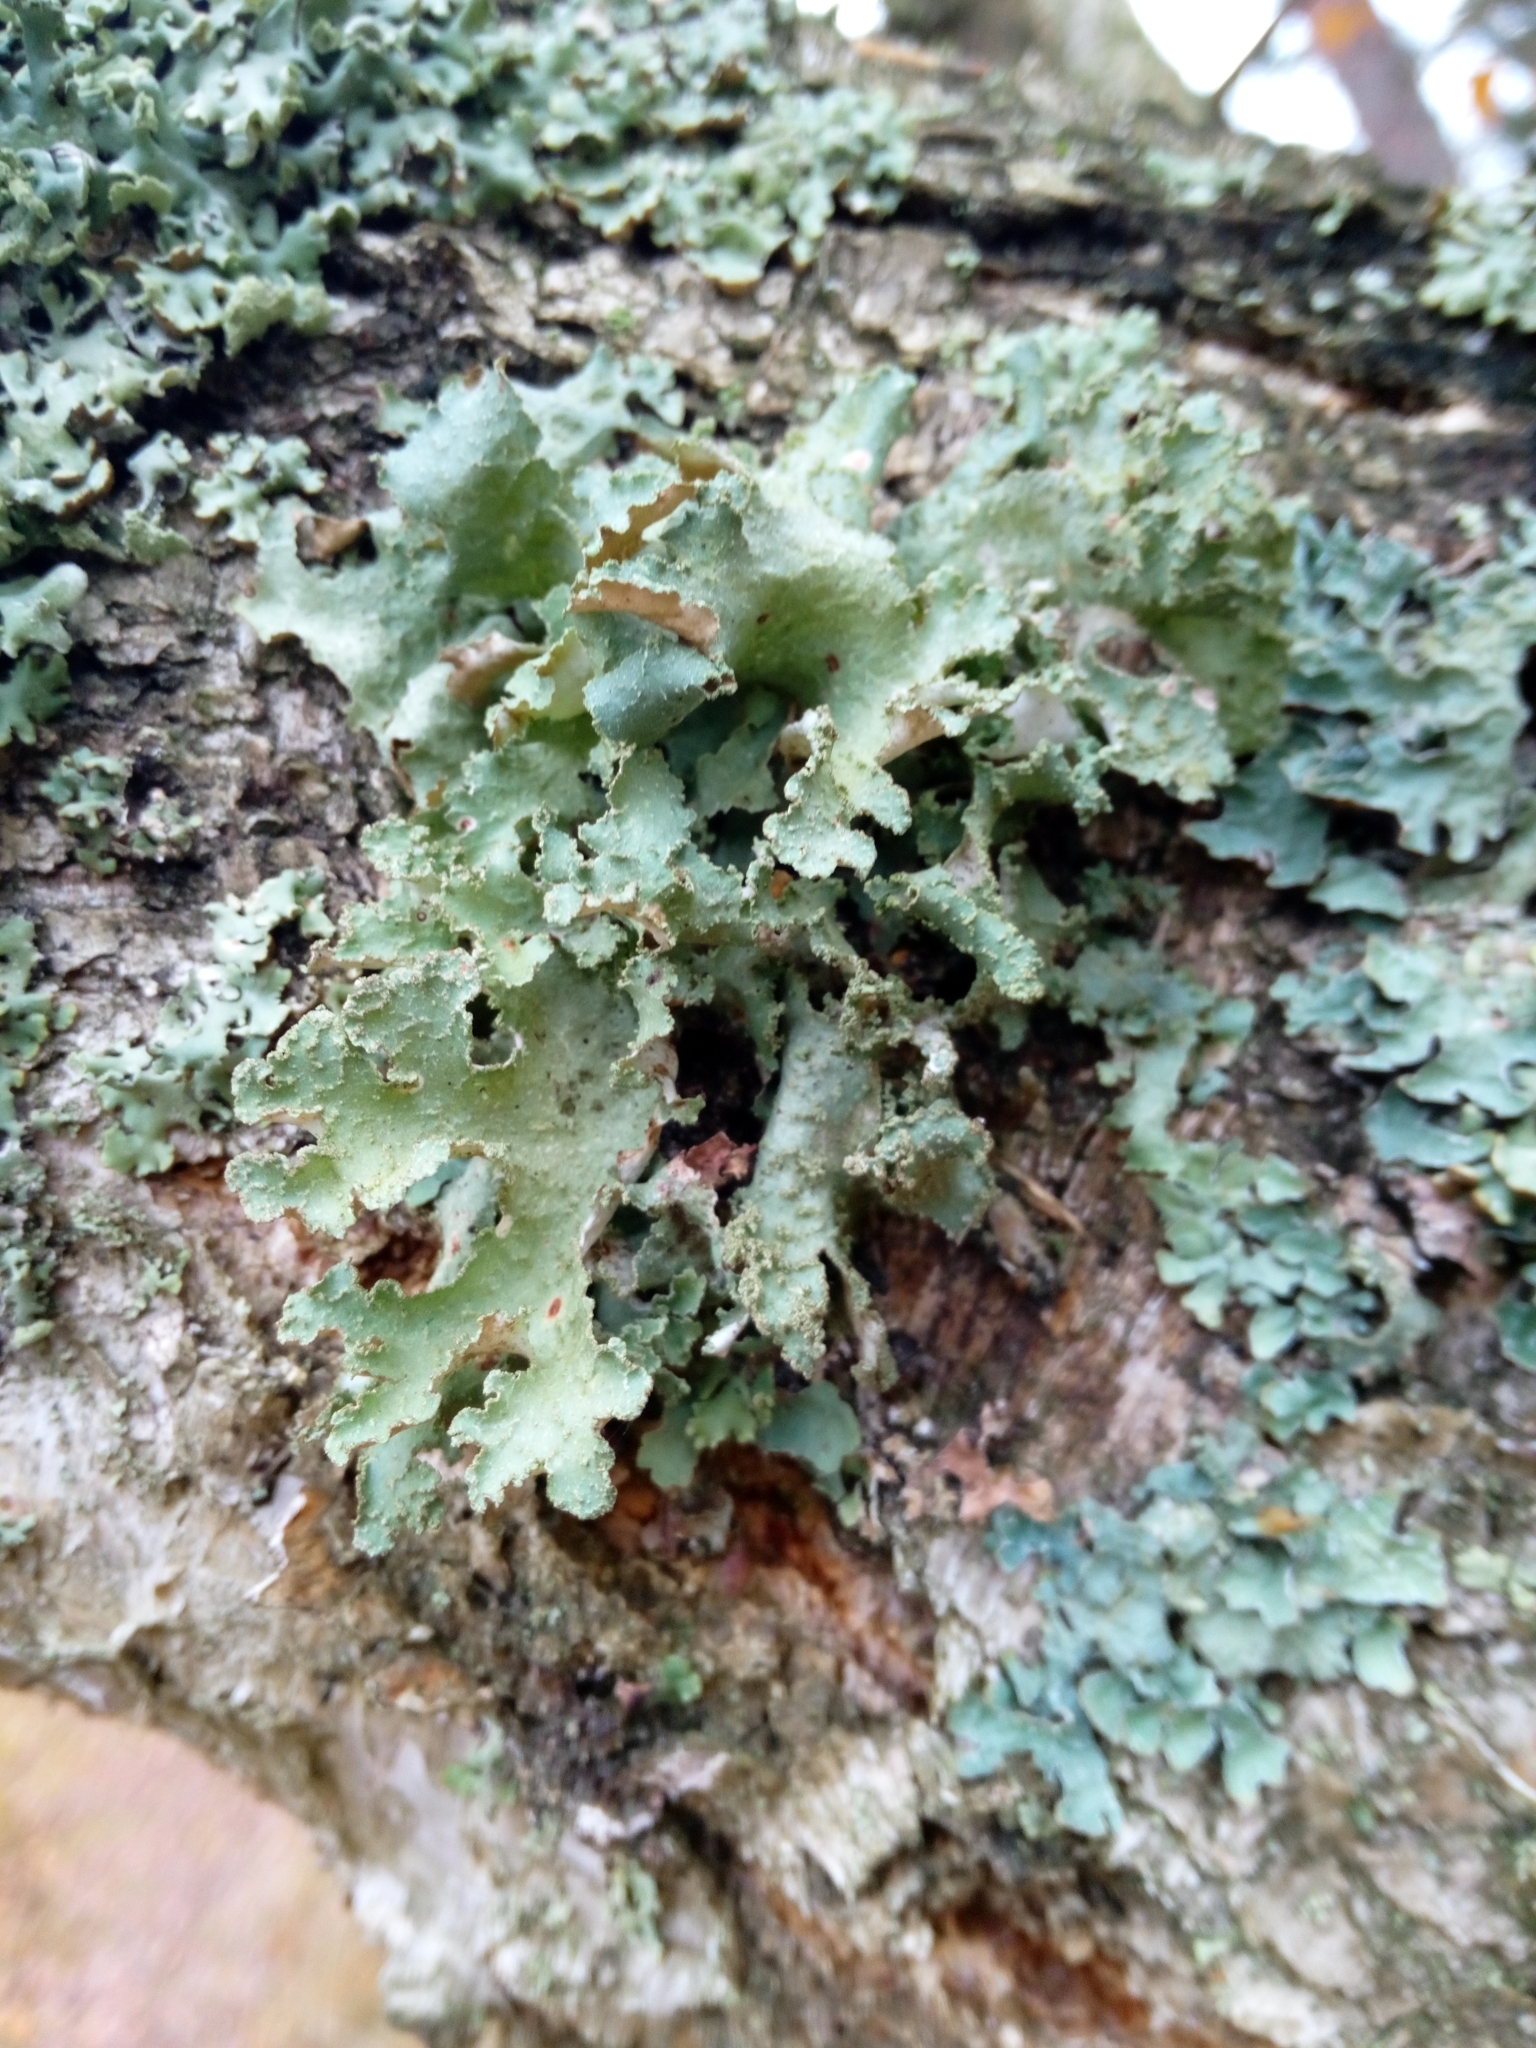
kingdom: Fungi
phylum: Ascomycota
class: Lecanoromycetes
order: Lecanorales
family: Parmeliaceae
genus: Platismatia
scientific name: Platismatia glauca
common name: Varied rag lichen
